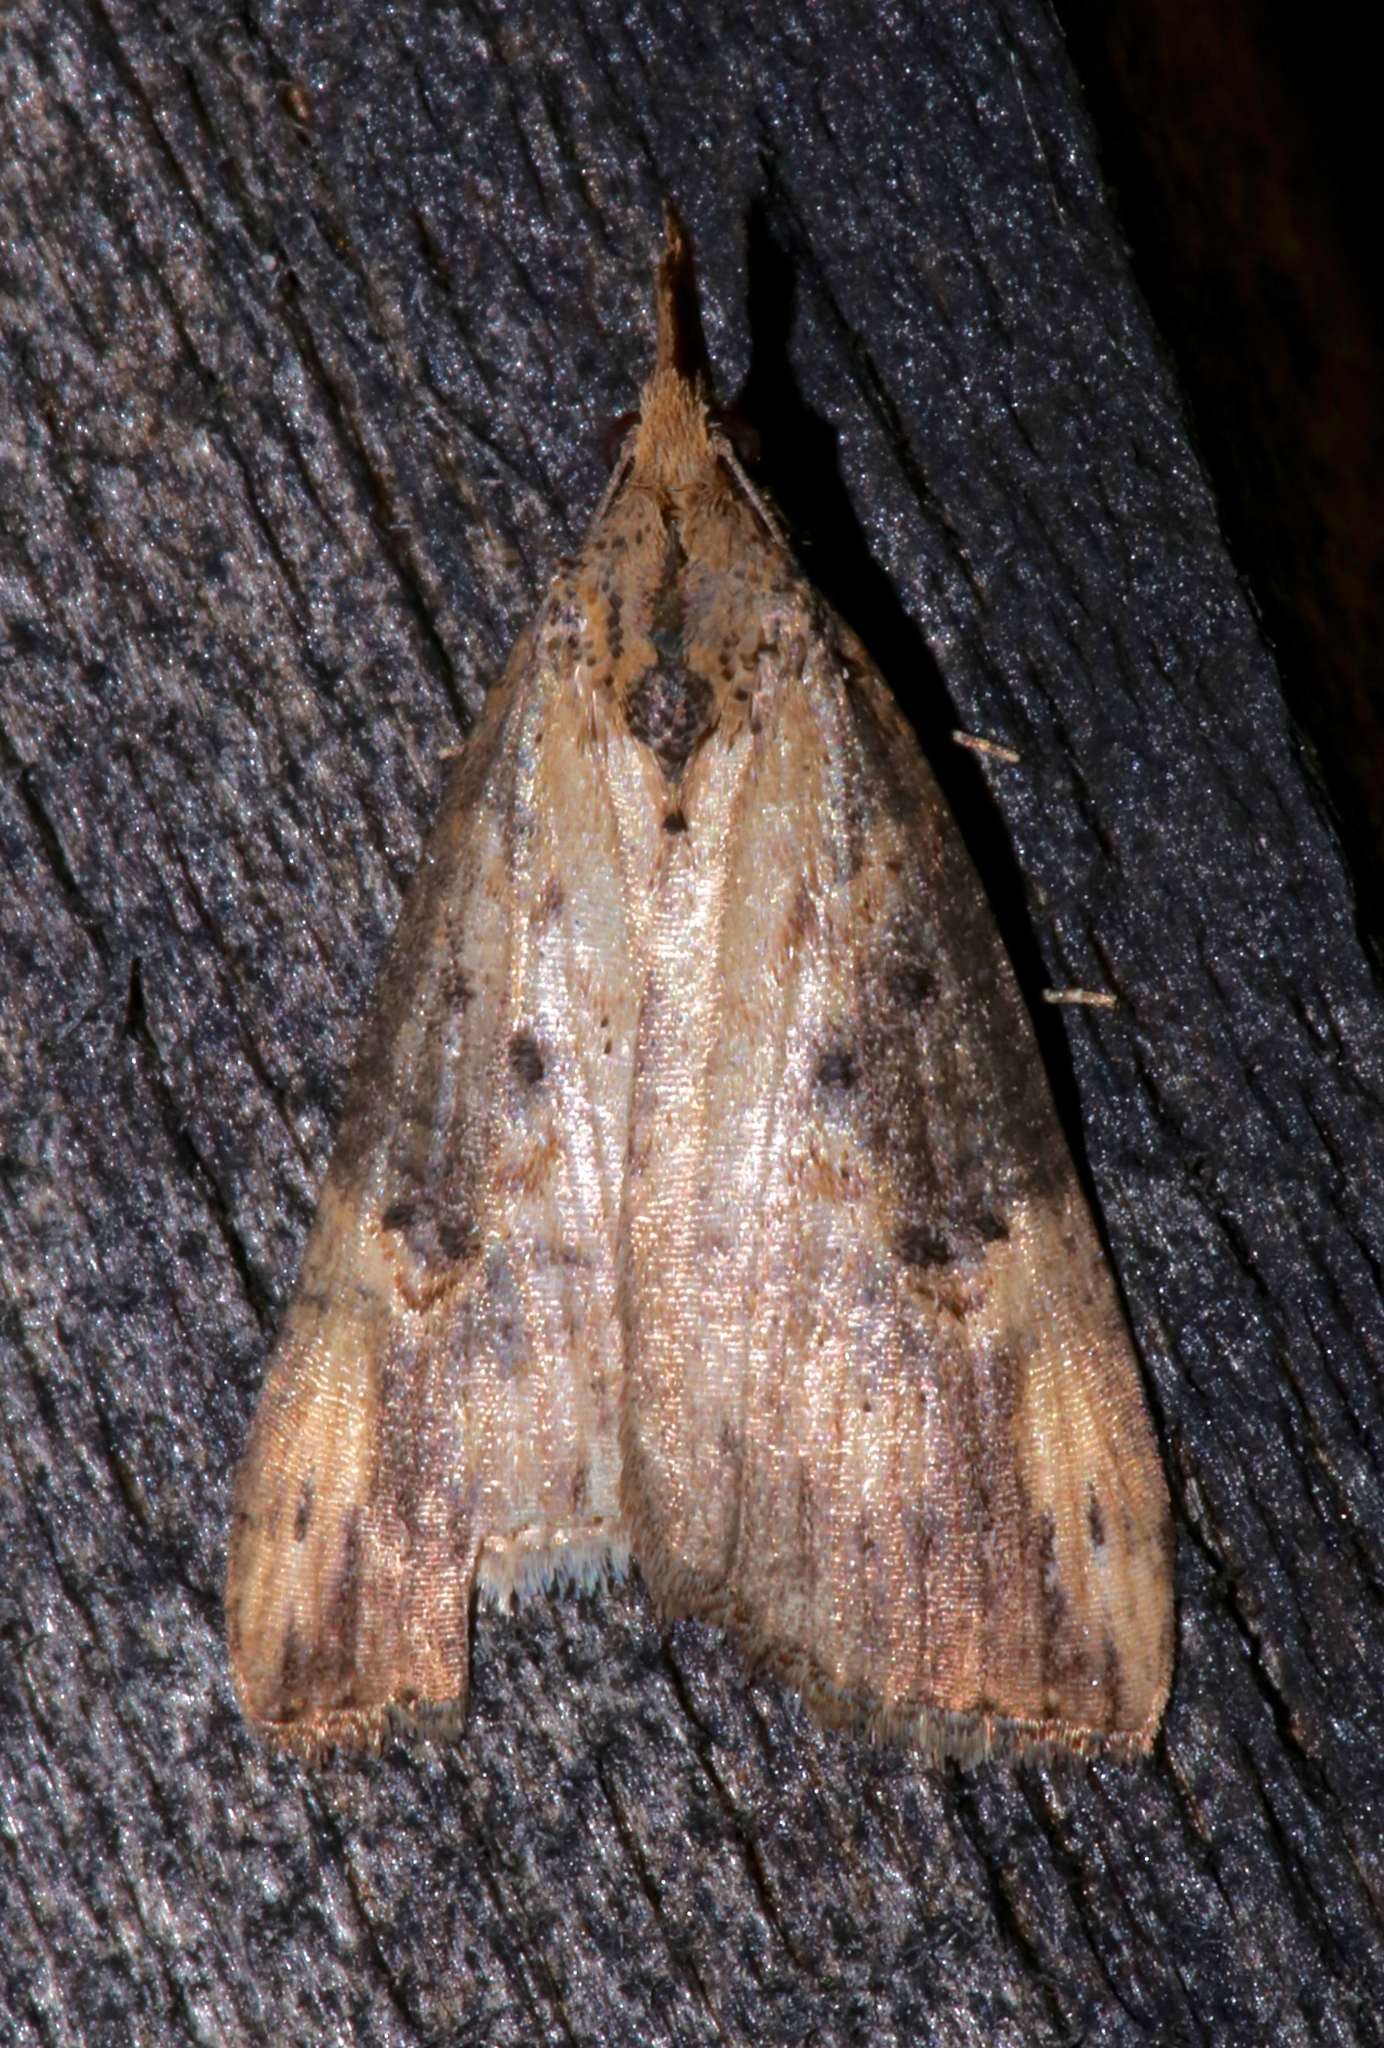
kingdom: Animalia
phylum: Arthropoda
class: Insecta
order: Lepidoptera
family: Erebidae
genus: Hypena
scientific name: Hypena humuli
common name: Hop vine snout
